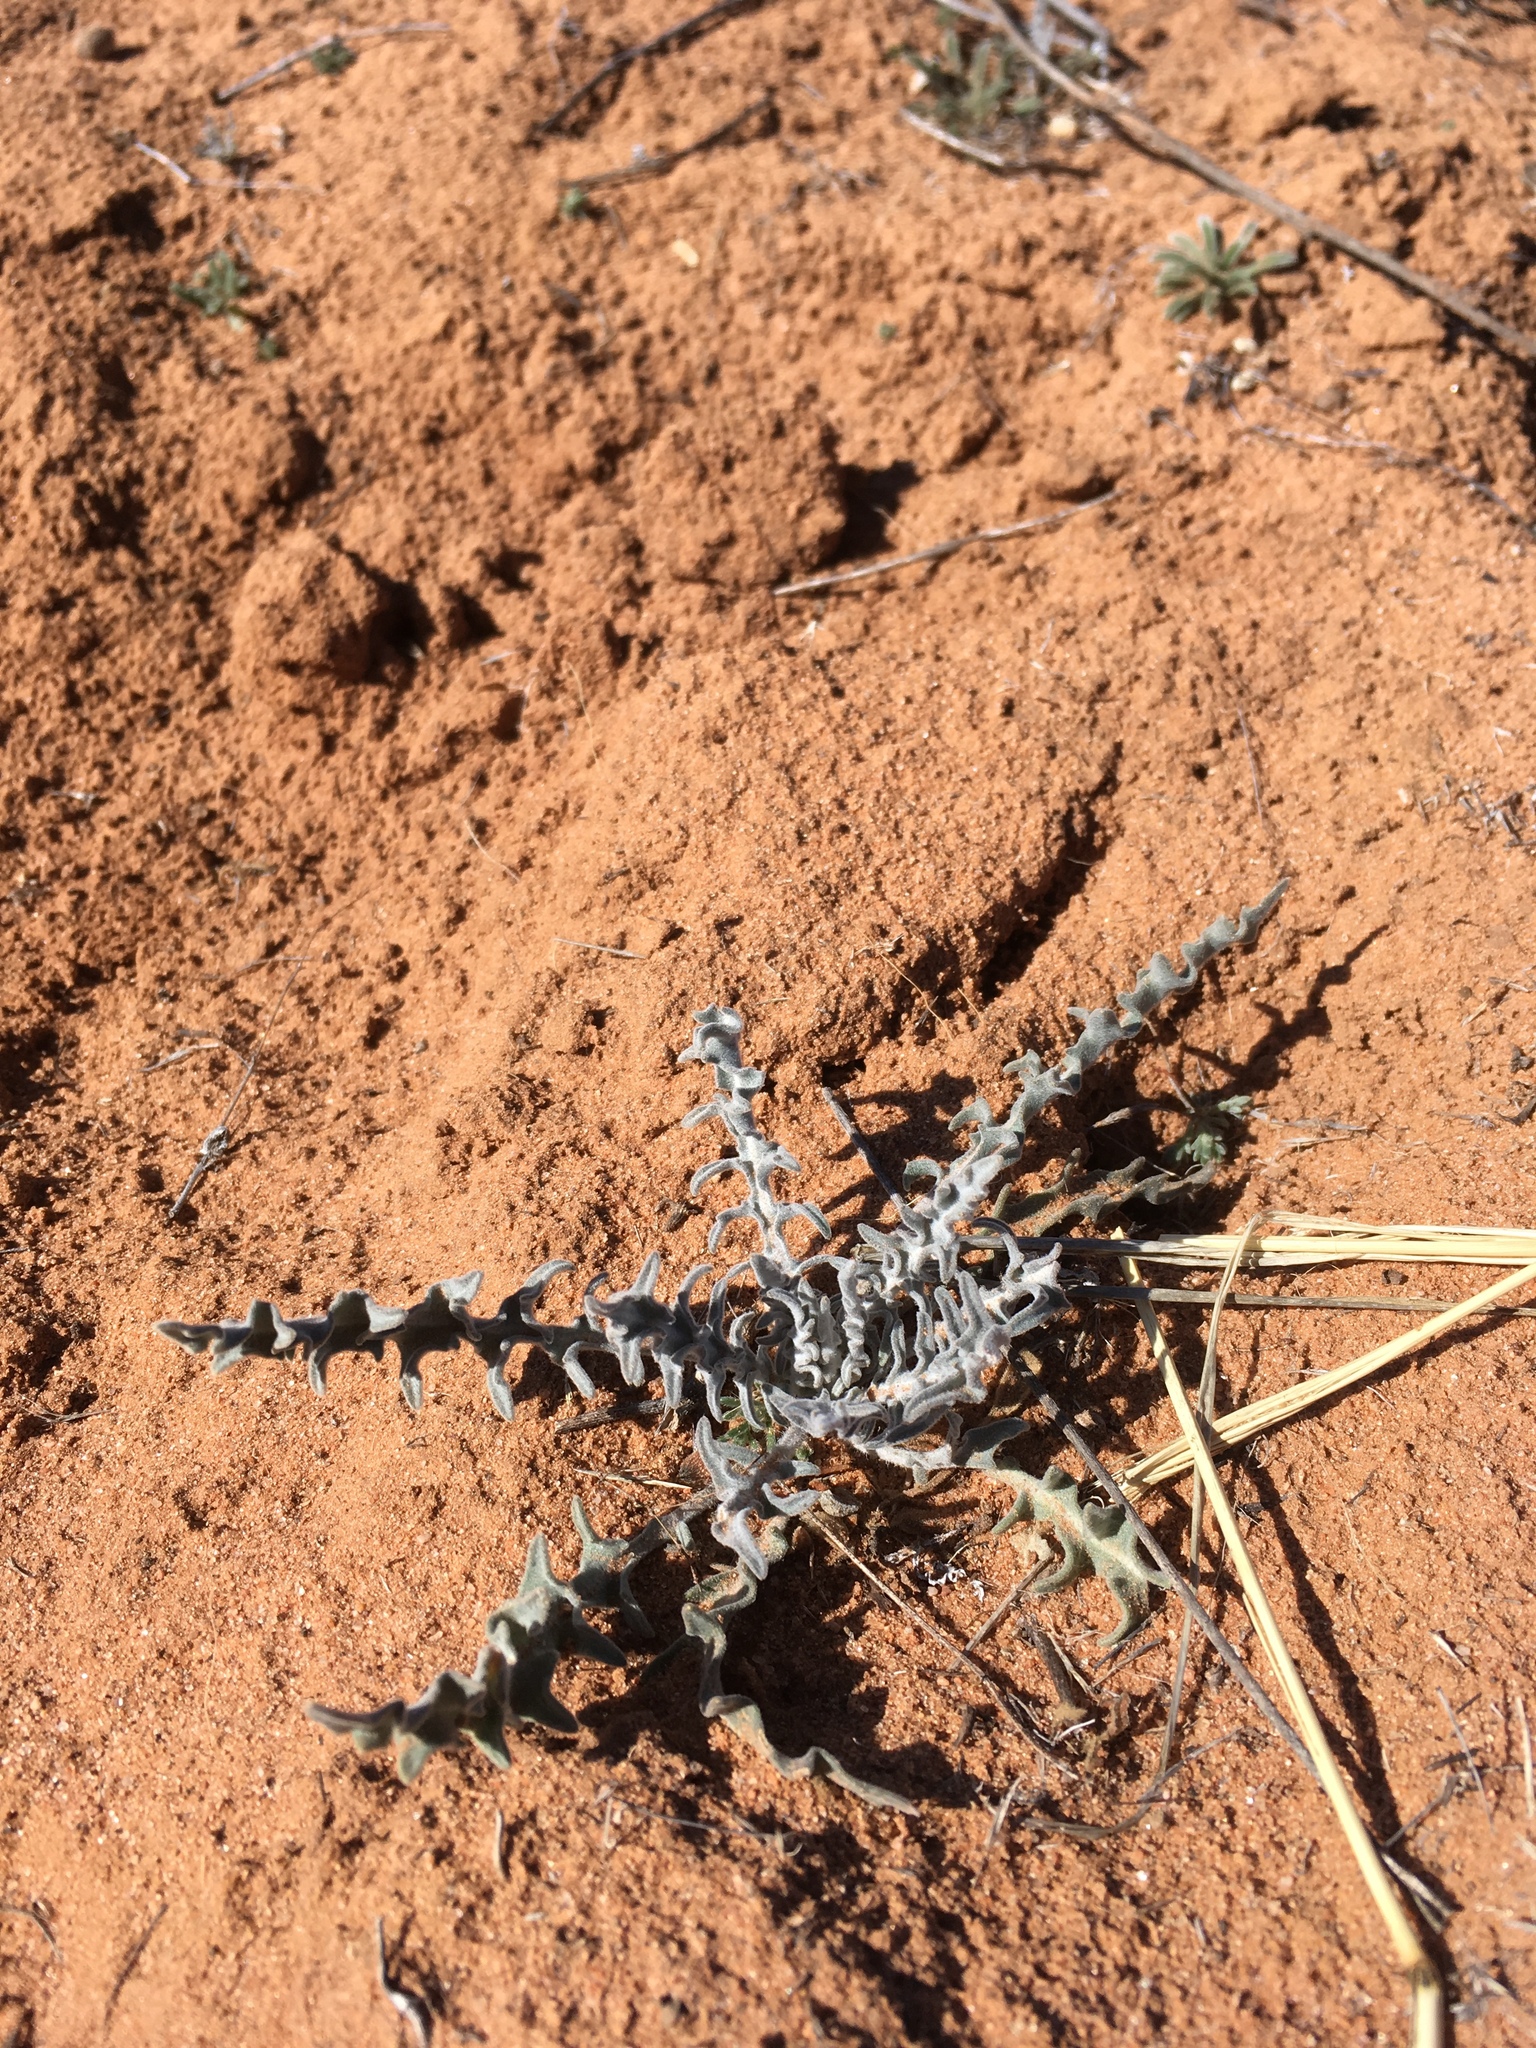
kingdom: Plantae
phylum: Tracheophyta
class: Magnoliopsida
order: Brassicales
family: Brassicaceae
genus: Dimorphocarpa
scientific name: Dimorphocarpa wislizenii
